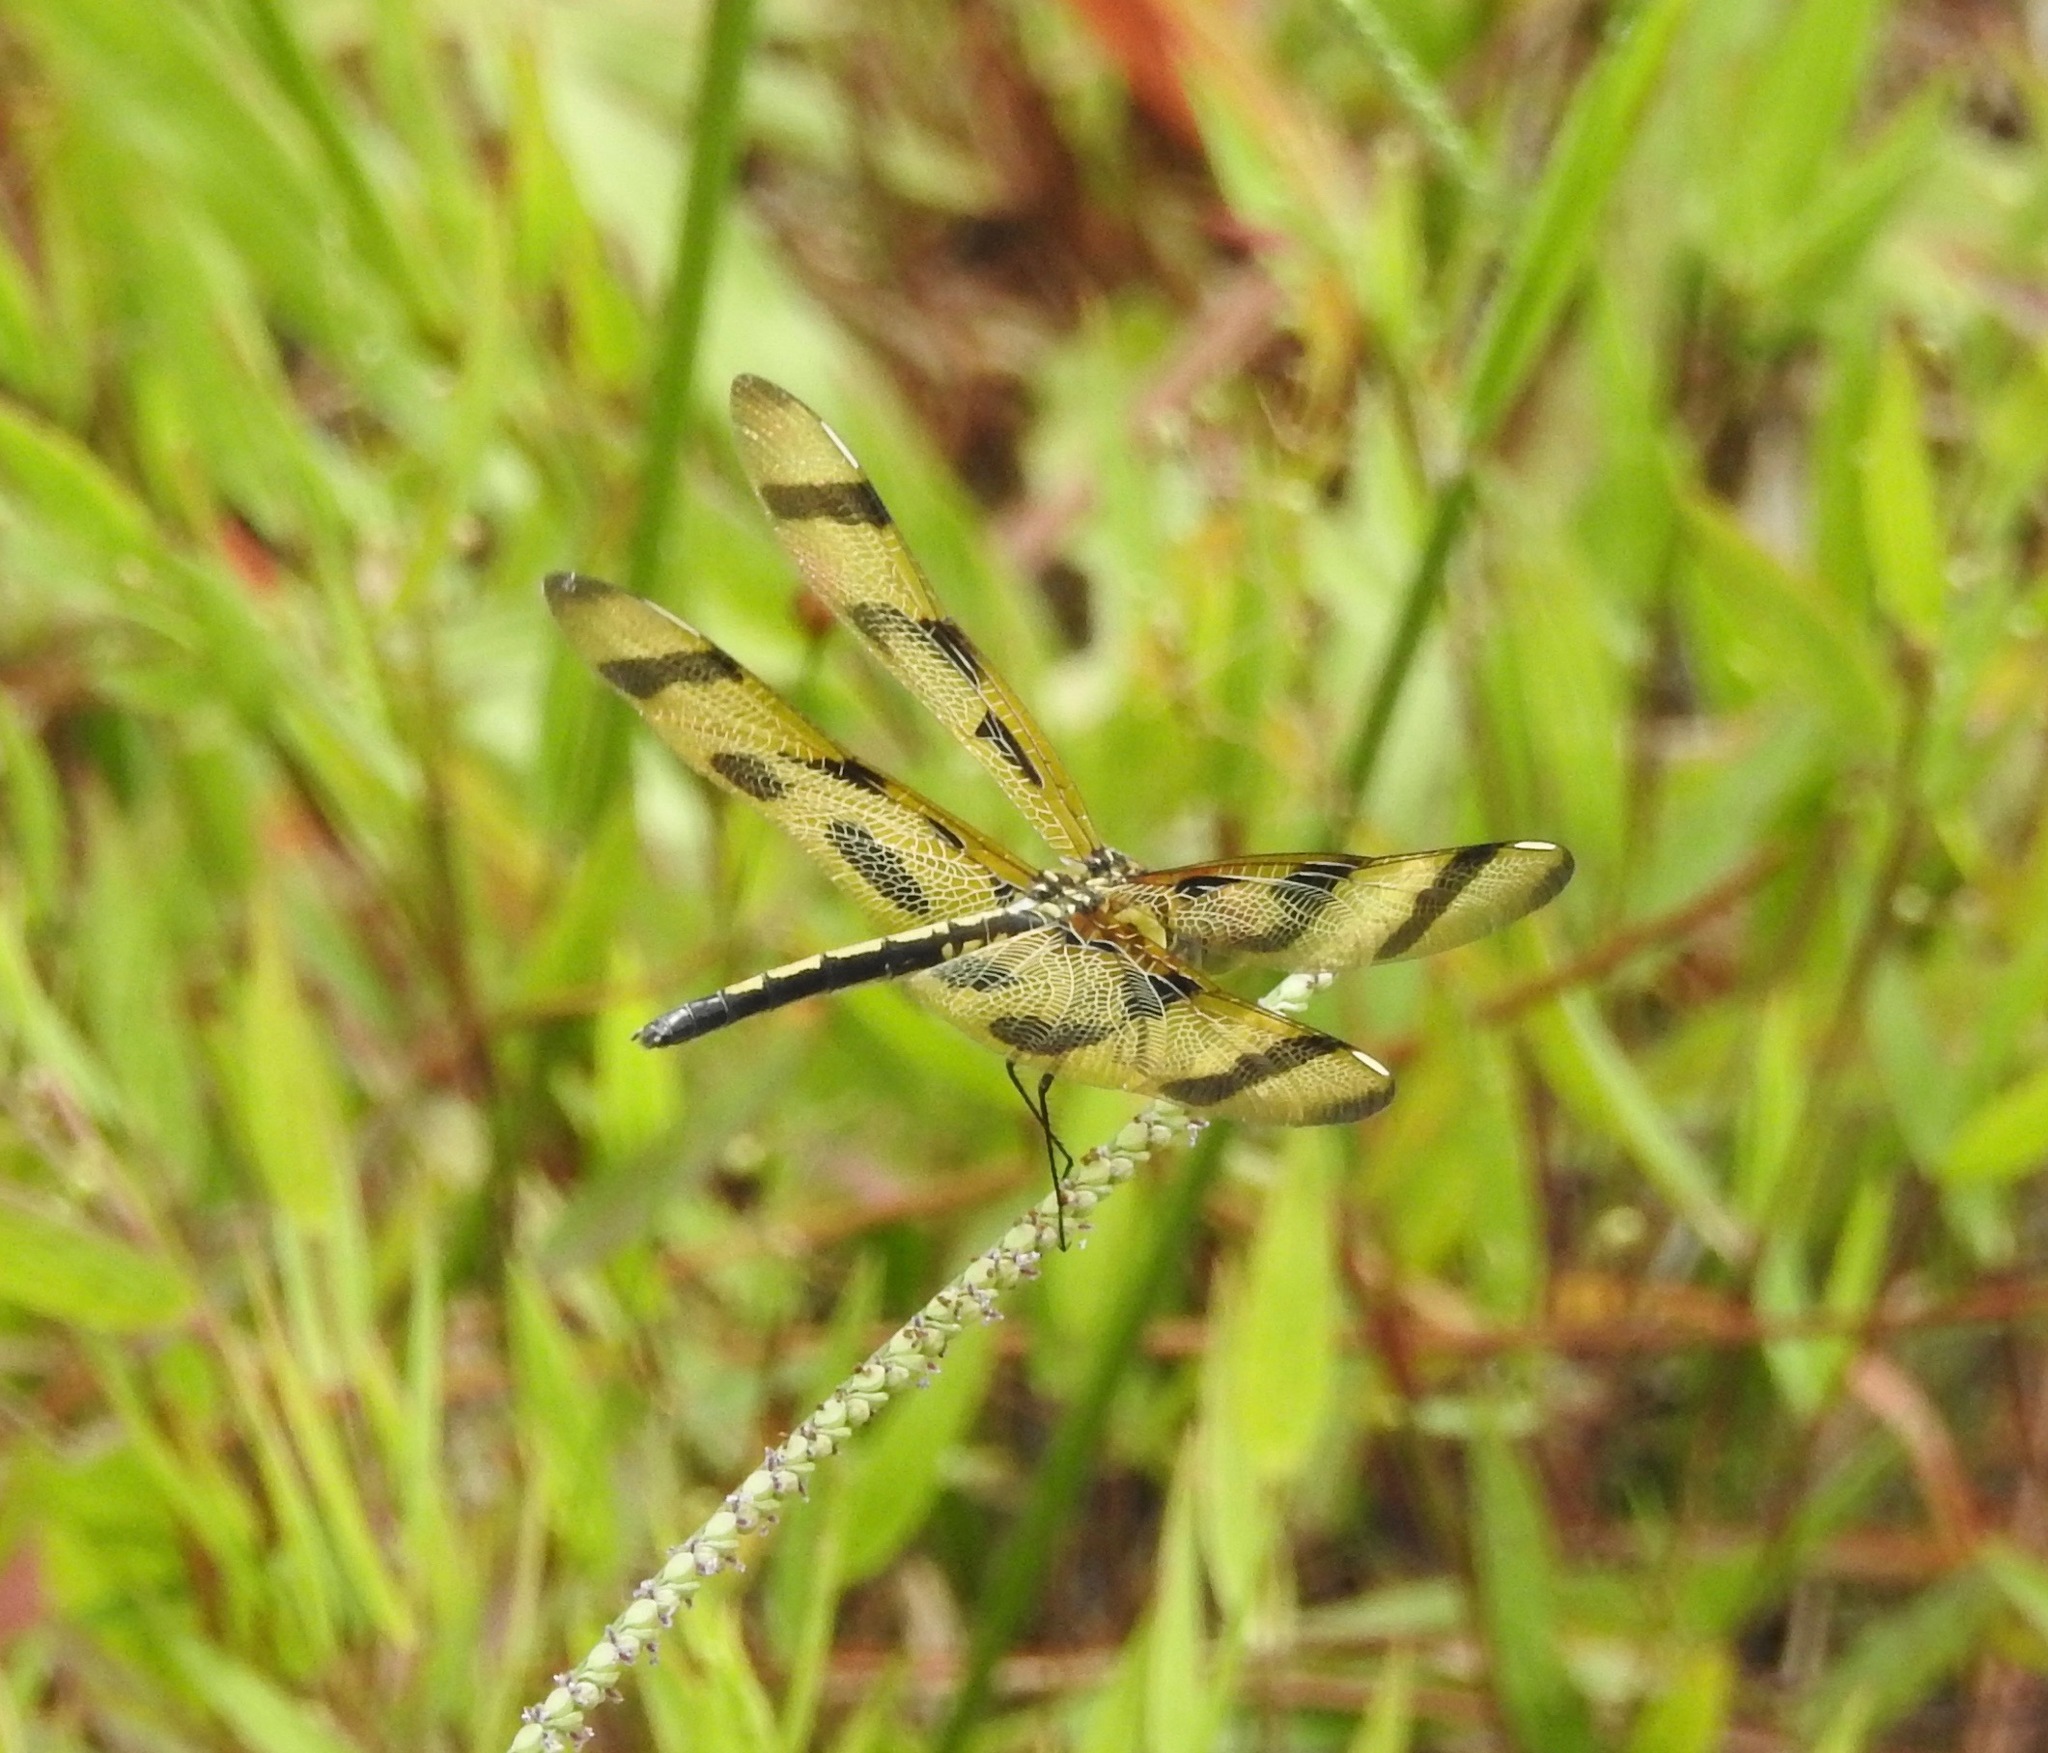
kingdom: Animalia
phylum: Arthropoda
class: Insecta
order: Odonata
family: Libellulidae
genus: Celithemis
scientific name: Celithemis eponina
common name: Halloween pennant
